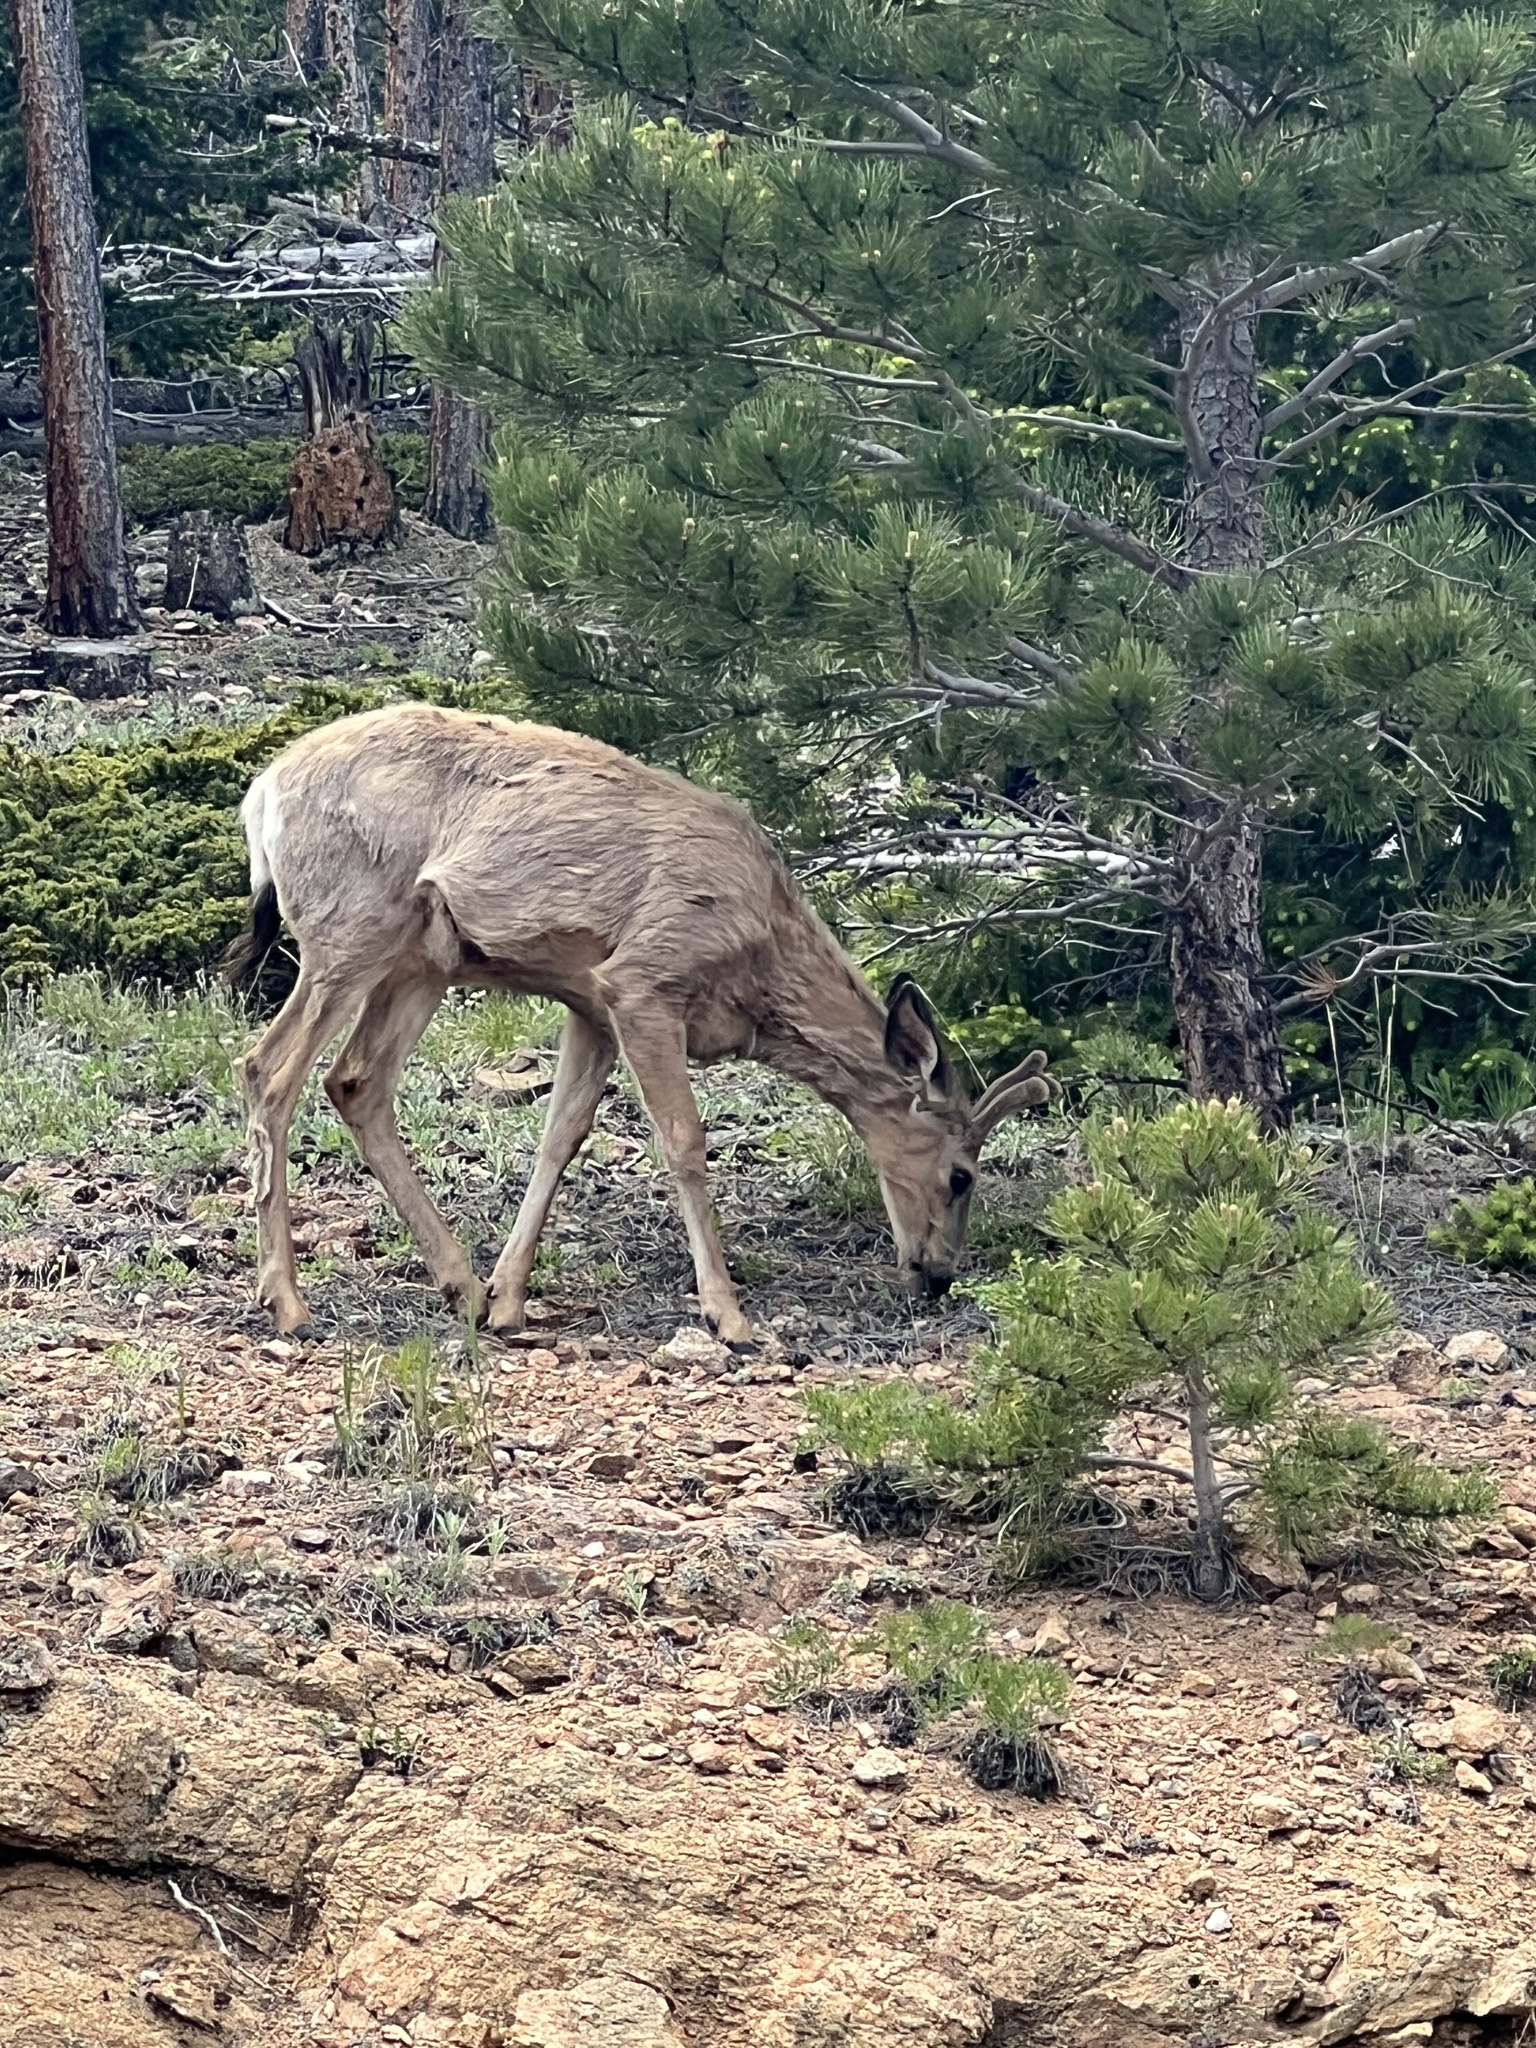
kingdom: Animalia
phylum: Chordata
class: Mammalia
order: Artiodactyla
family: Cervidae
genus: Odocoileus
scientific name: Odocoileus hemionus
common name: Mule deer
